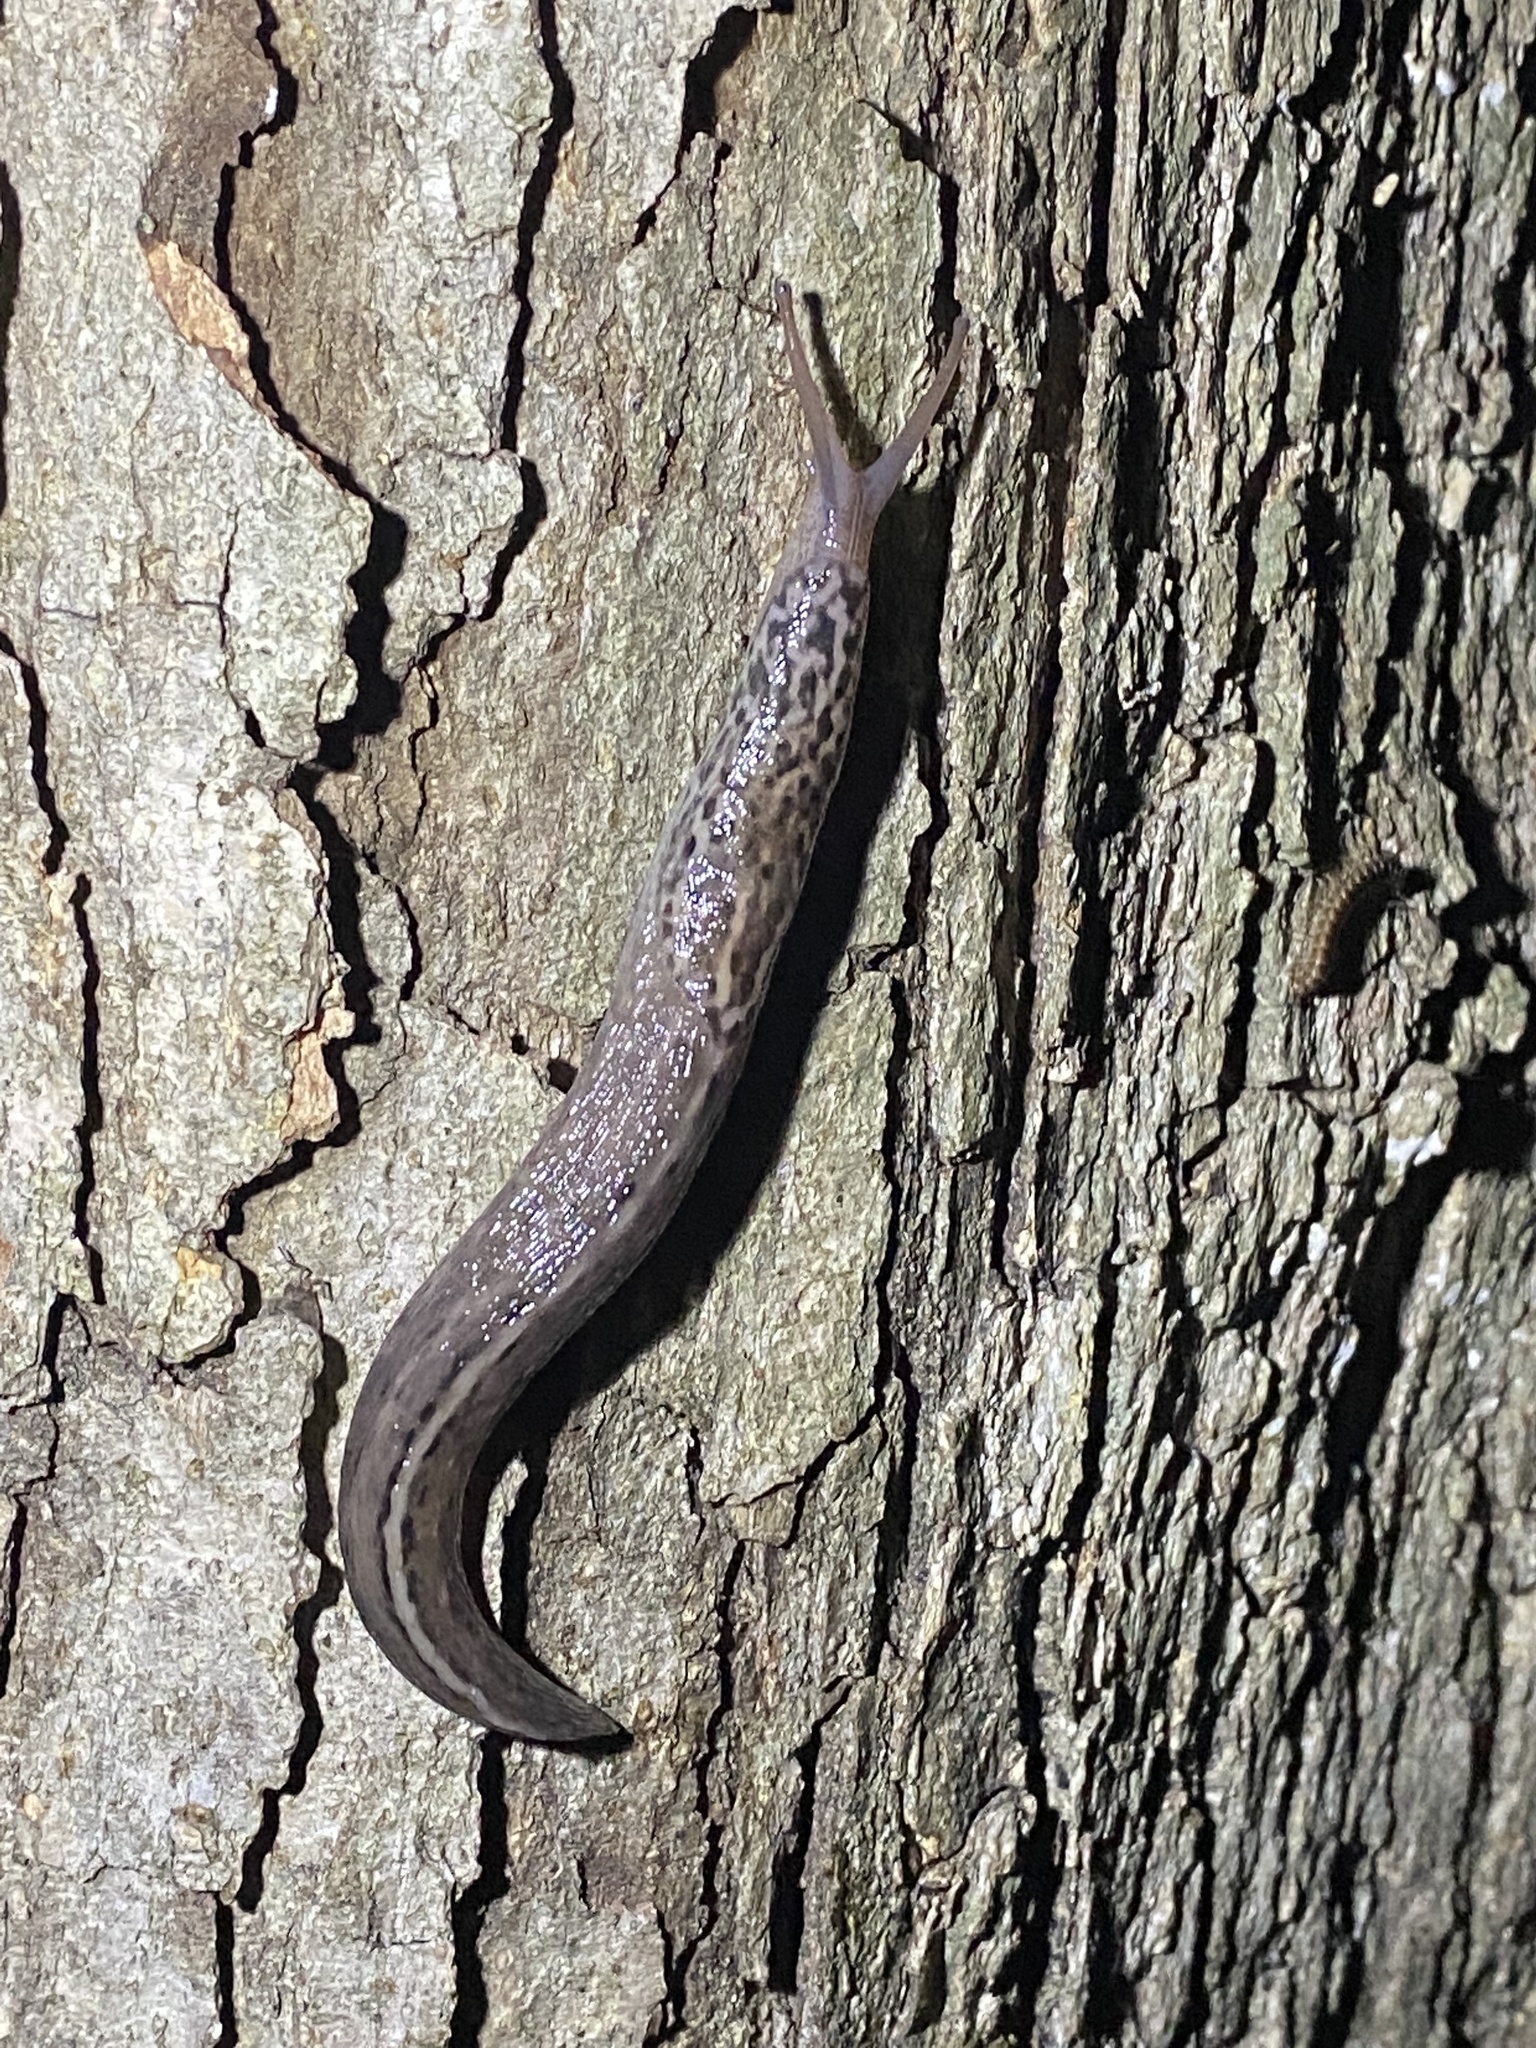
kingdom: Animalia
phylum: Mollusca
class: Gastropoda
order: Stylommatophora
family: Limacidae
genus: Limax
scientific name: Limax maximus
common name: Great grey slug
